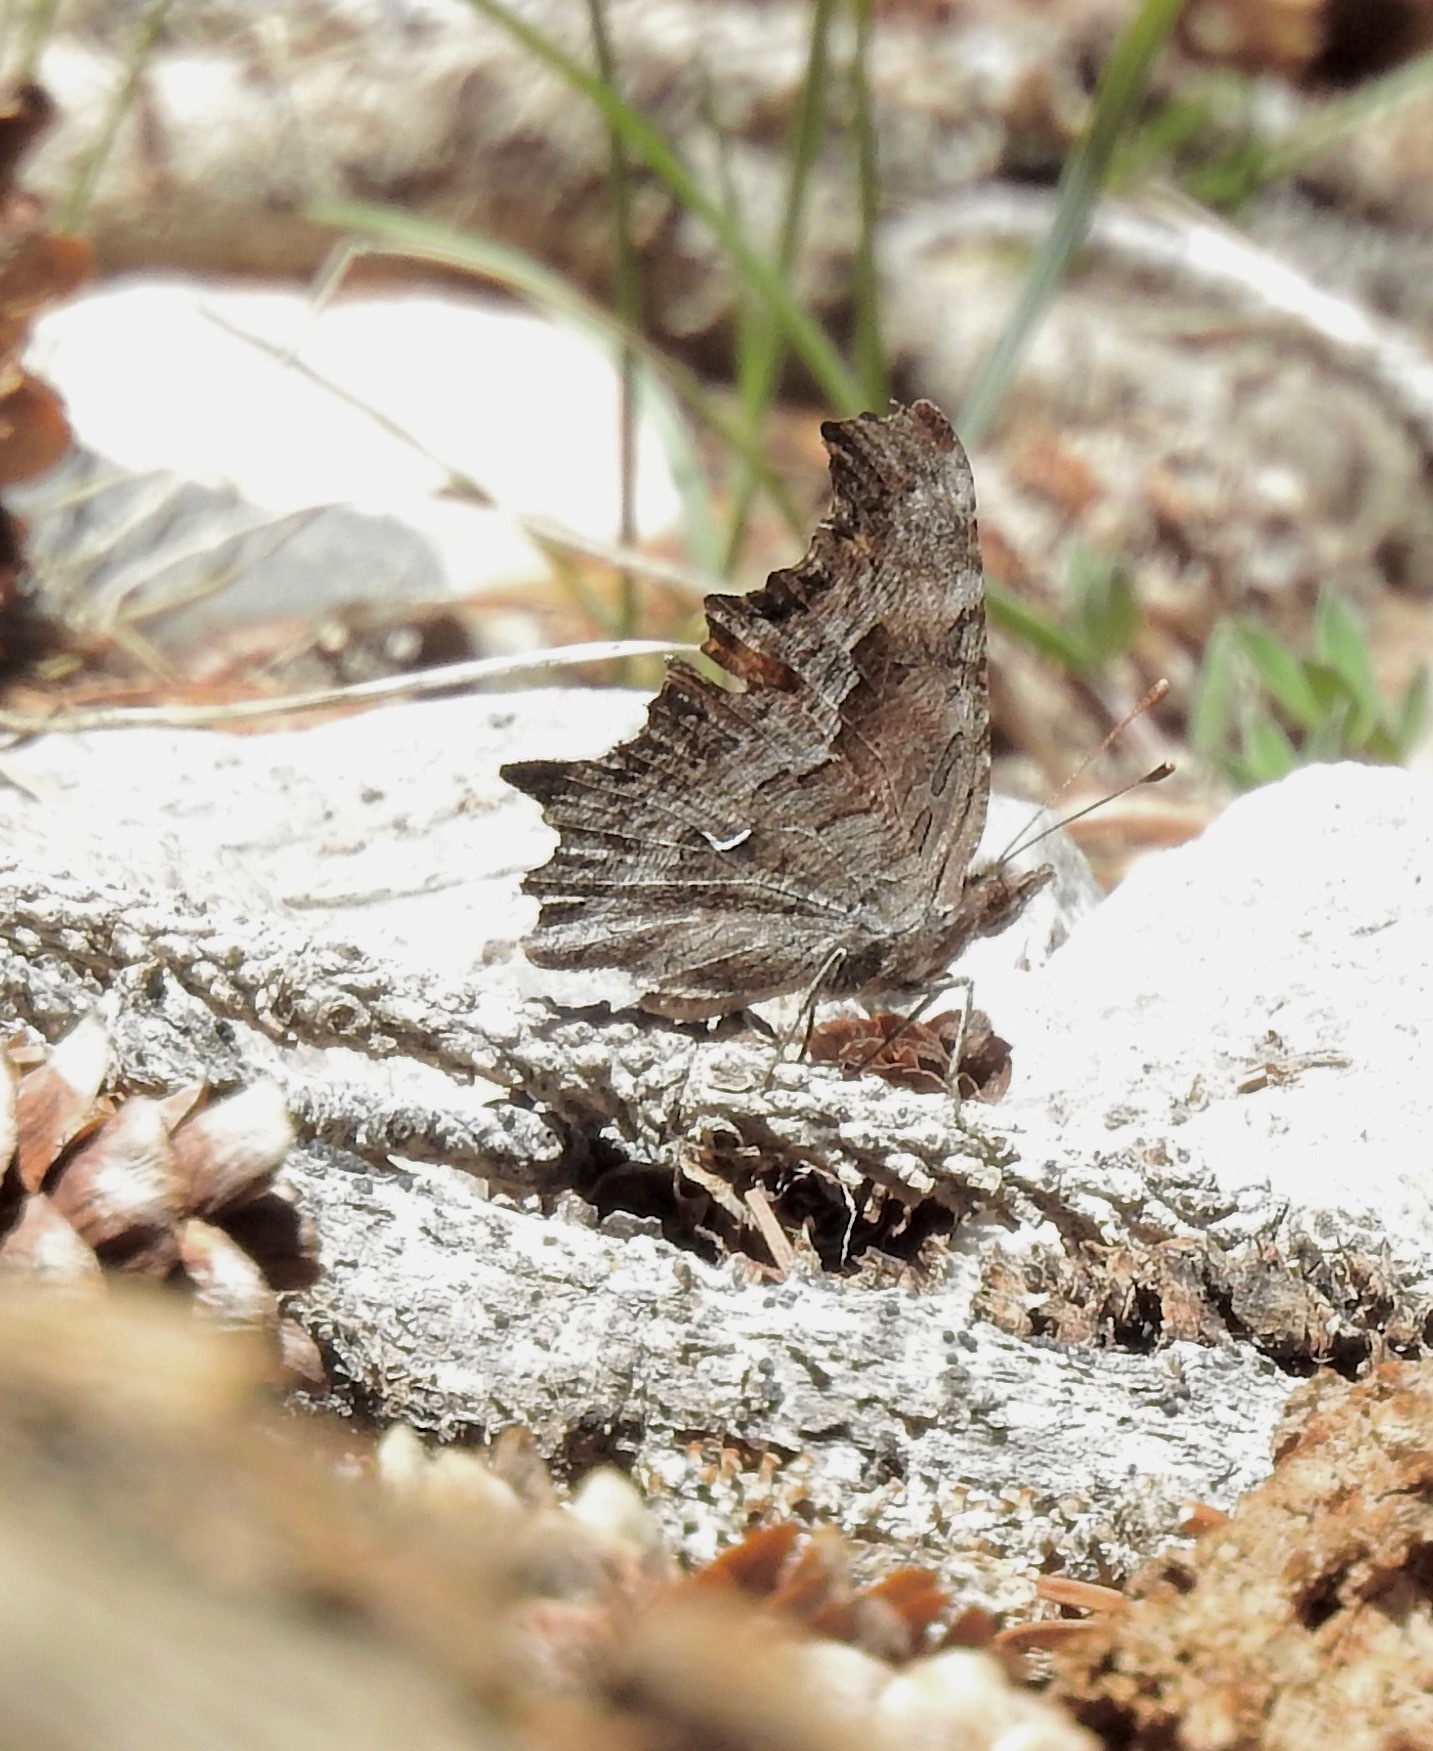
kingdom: Animalia
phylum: Arthropoda
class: Insecta
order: Lepidoptera
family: Nymphalidae
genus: Polygonia
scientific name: Polygonia gracilis
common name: Hoary comma
